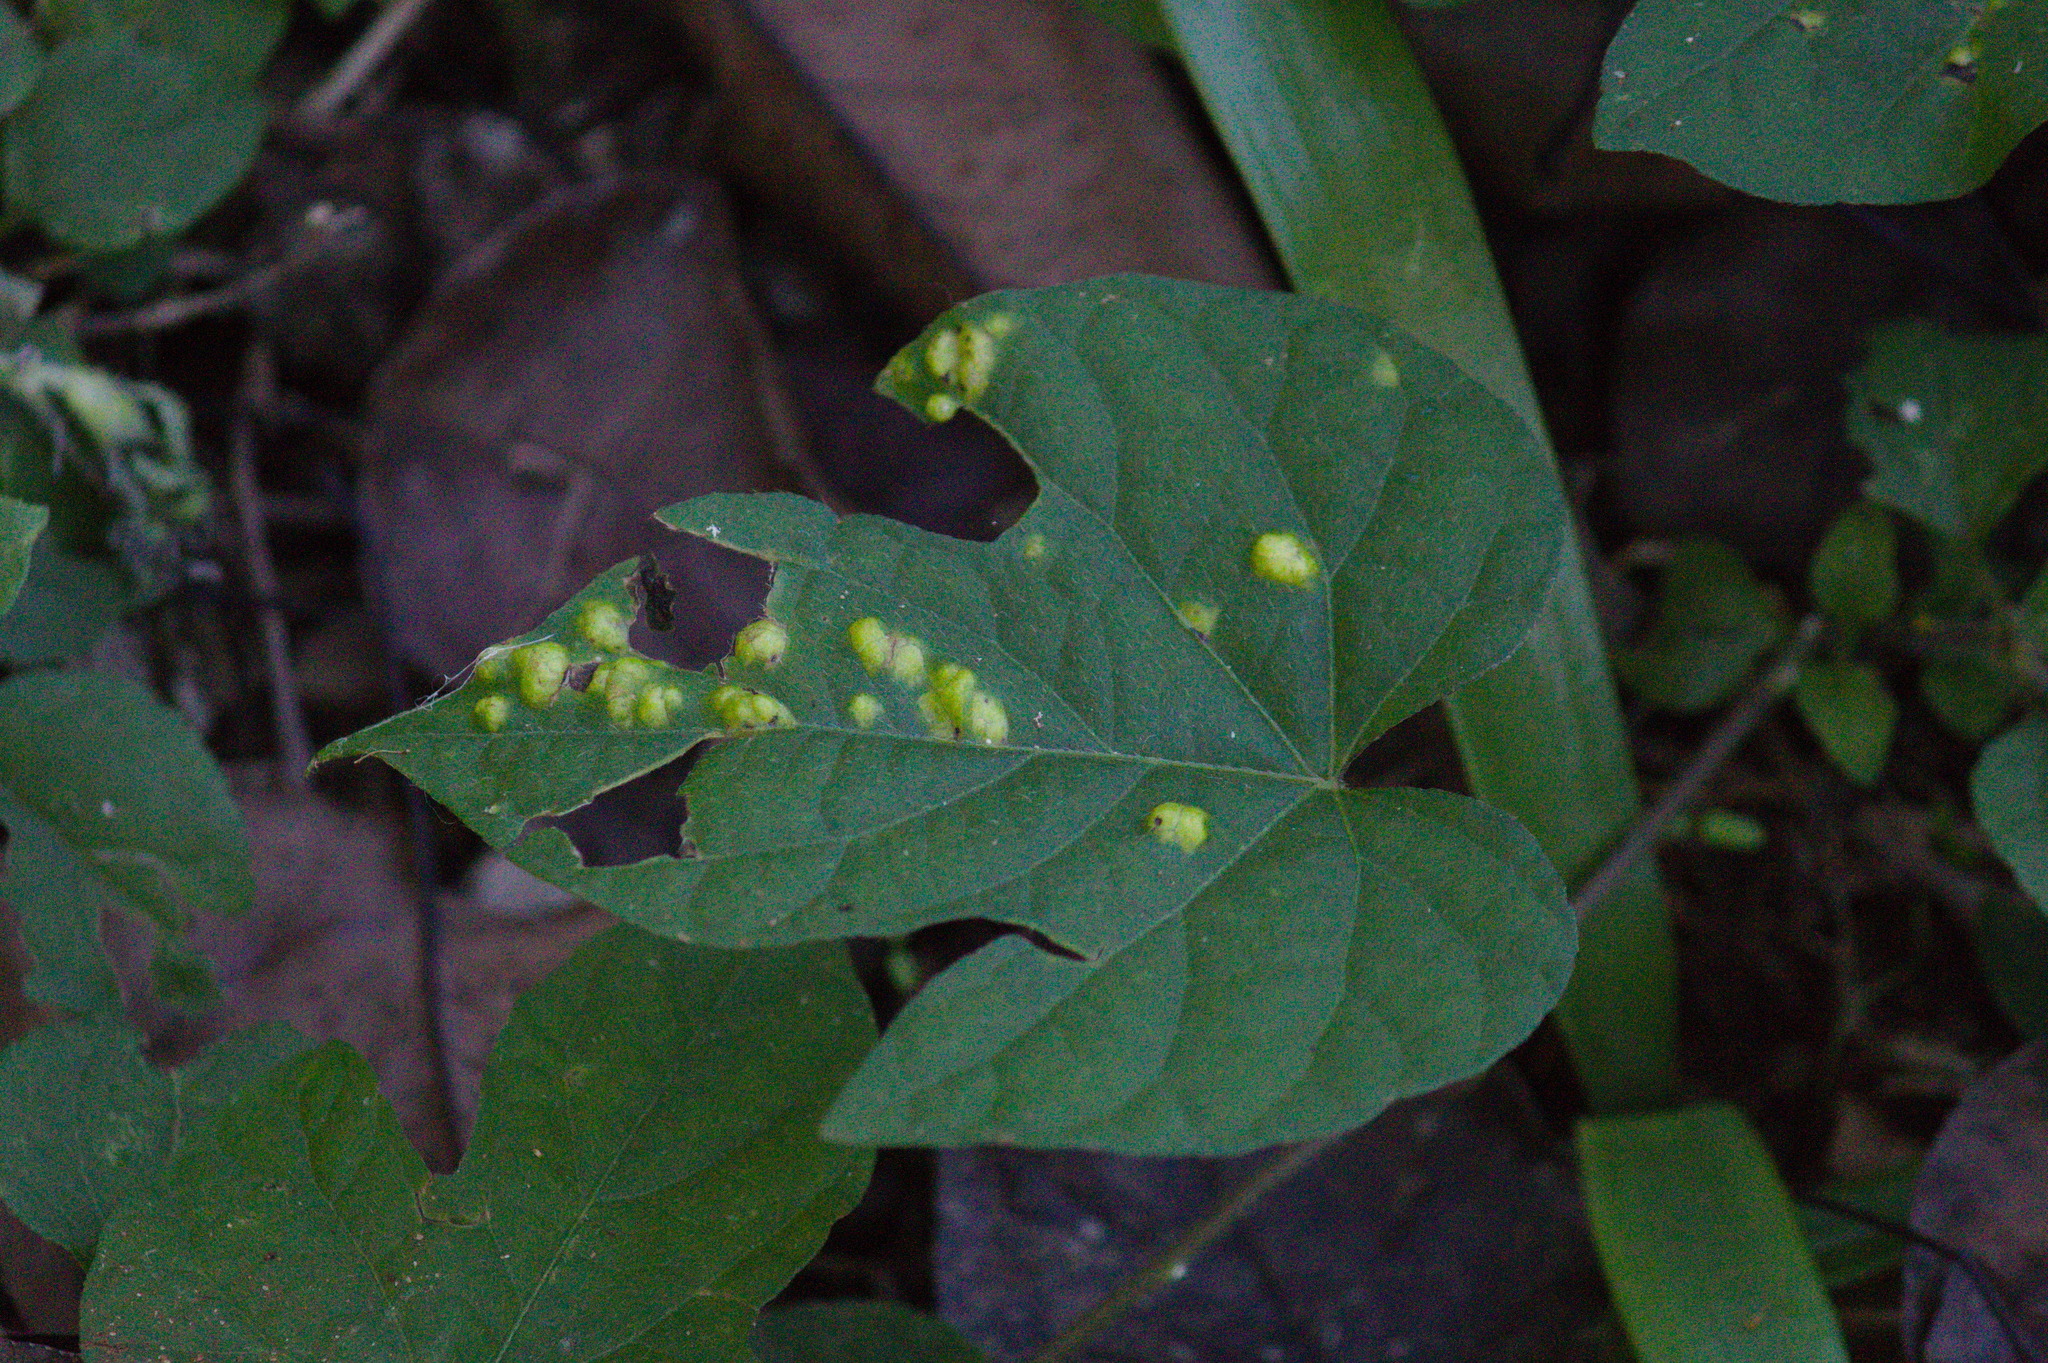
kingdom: Chromista
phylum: Oomycota
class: Peronosporea
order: Albuginales
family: Albuginaceae
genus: Albugo
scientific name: Albugo ipomoeae-panduratae
